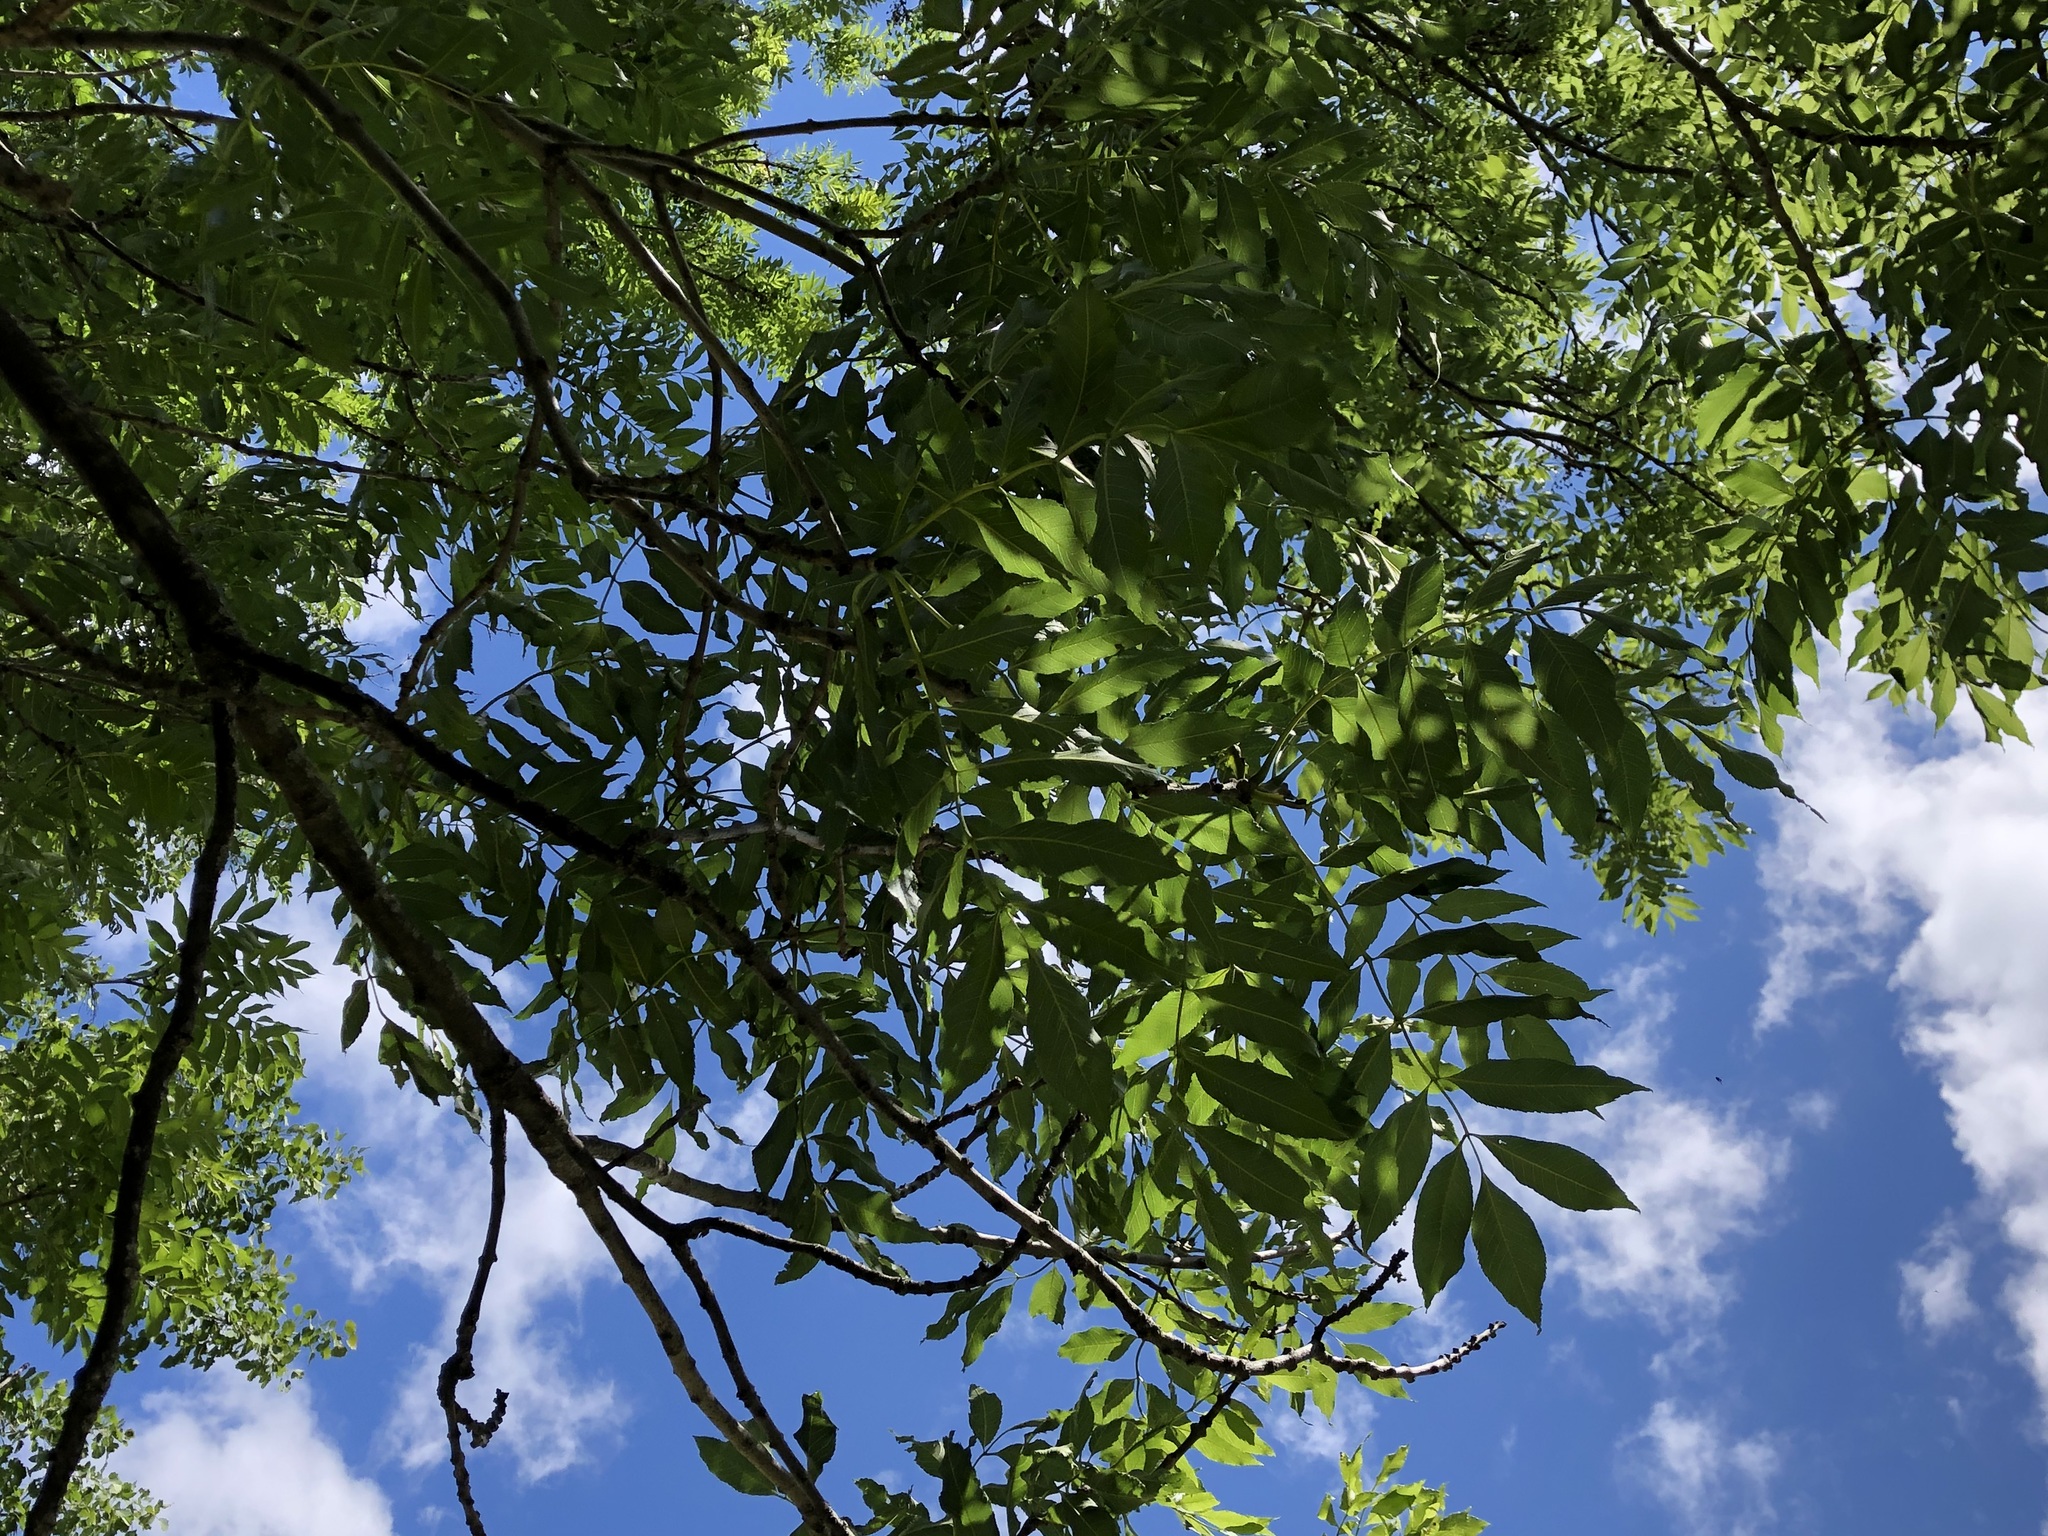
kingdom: Plantae
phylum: Tracheophyta
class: Magnoliopsida
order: Lamiales
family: Oleaceae
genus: Fraxinus
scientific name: Fraxinus excelsior
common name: European ash
